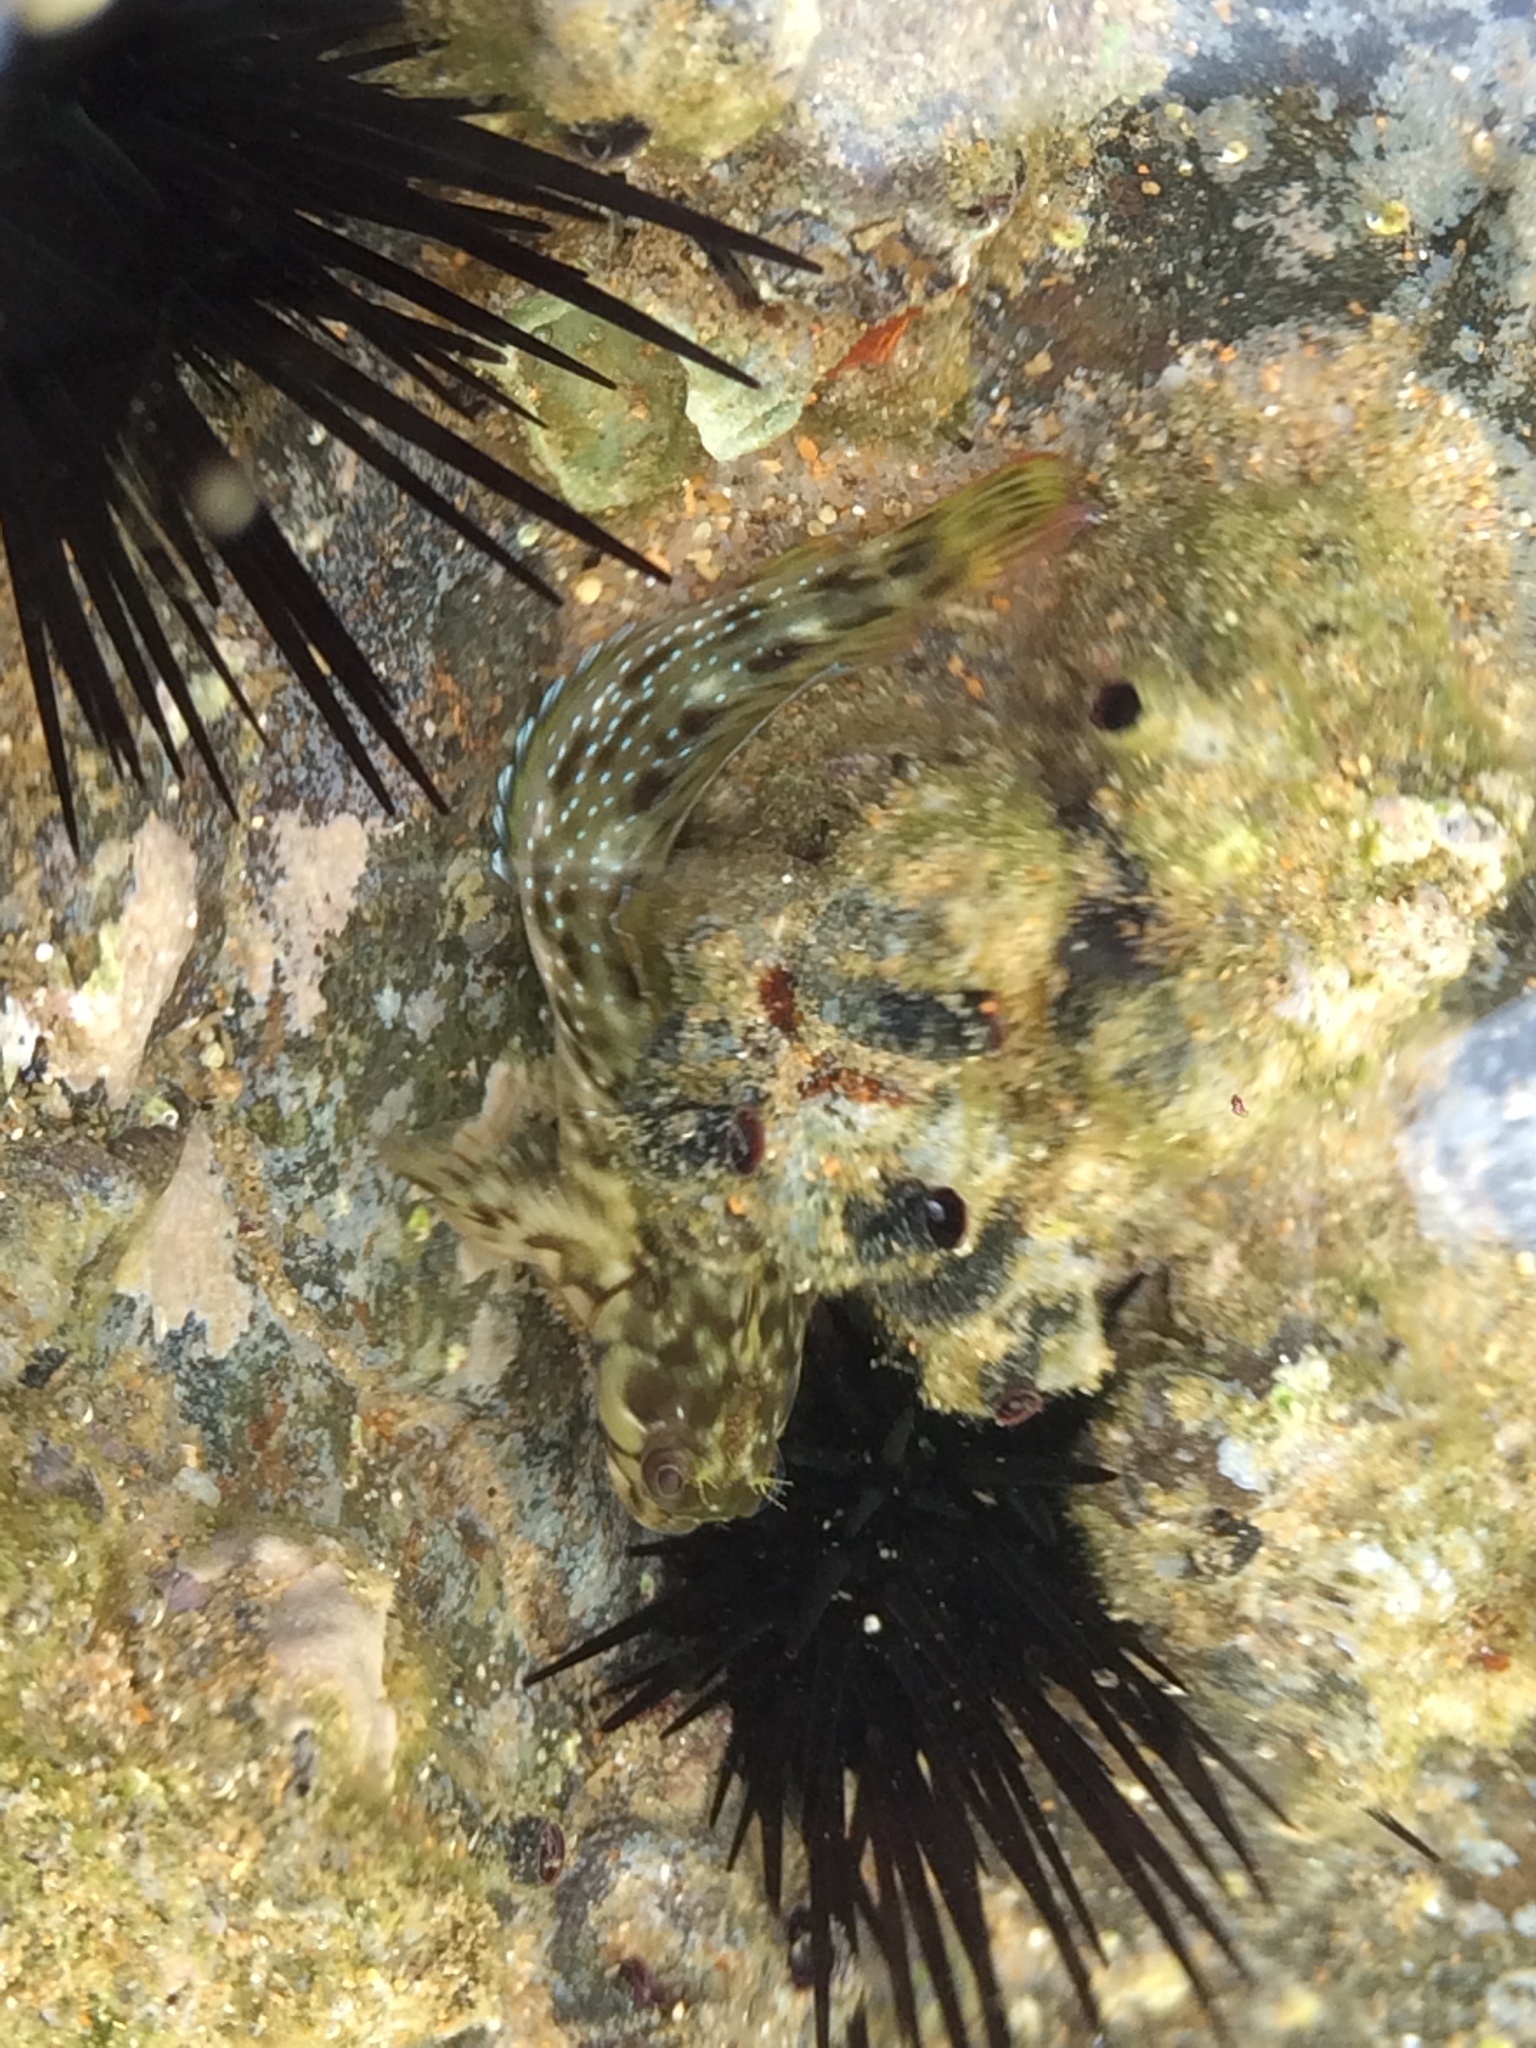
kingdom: Animalia
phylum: Chordata
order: Perciformes
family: Blenniidae
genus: Scartella
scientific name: Scartella cristata
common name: Molly miller
